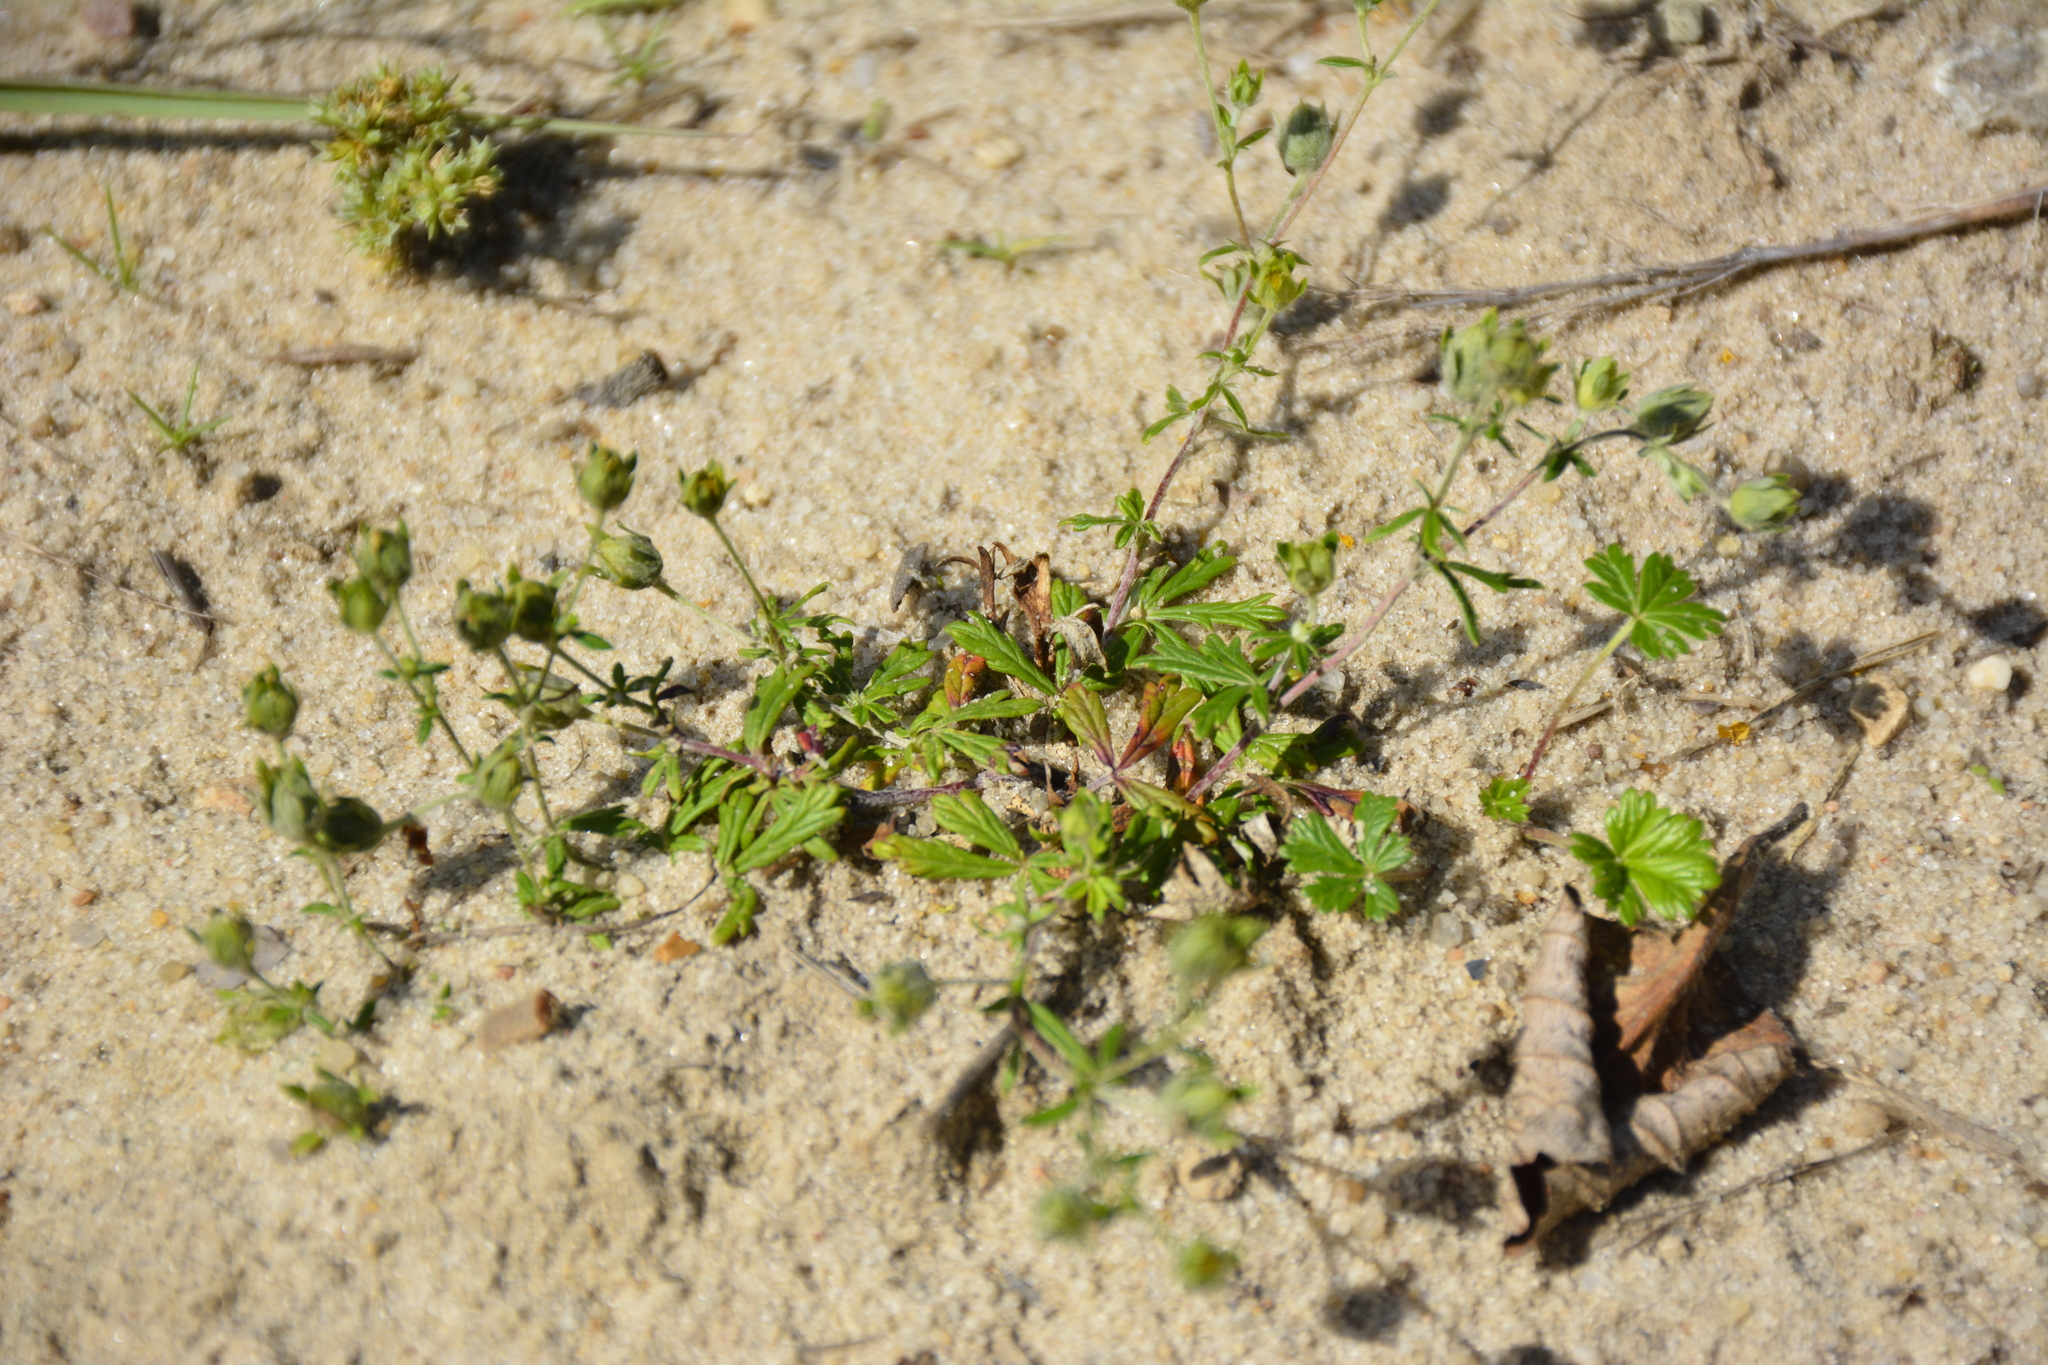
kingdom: Plantae
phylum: Tracheophyta
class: Magnoliopsida
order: Rosales
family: Rosaceae
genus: Potentilla
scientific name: Potentilla argentea
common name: Hoary cinquefoil
